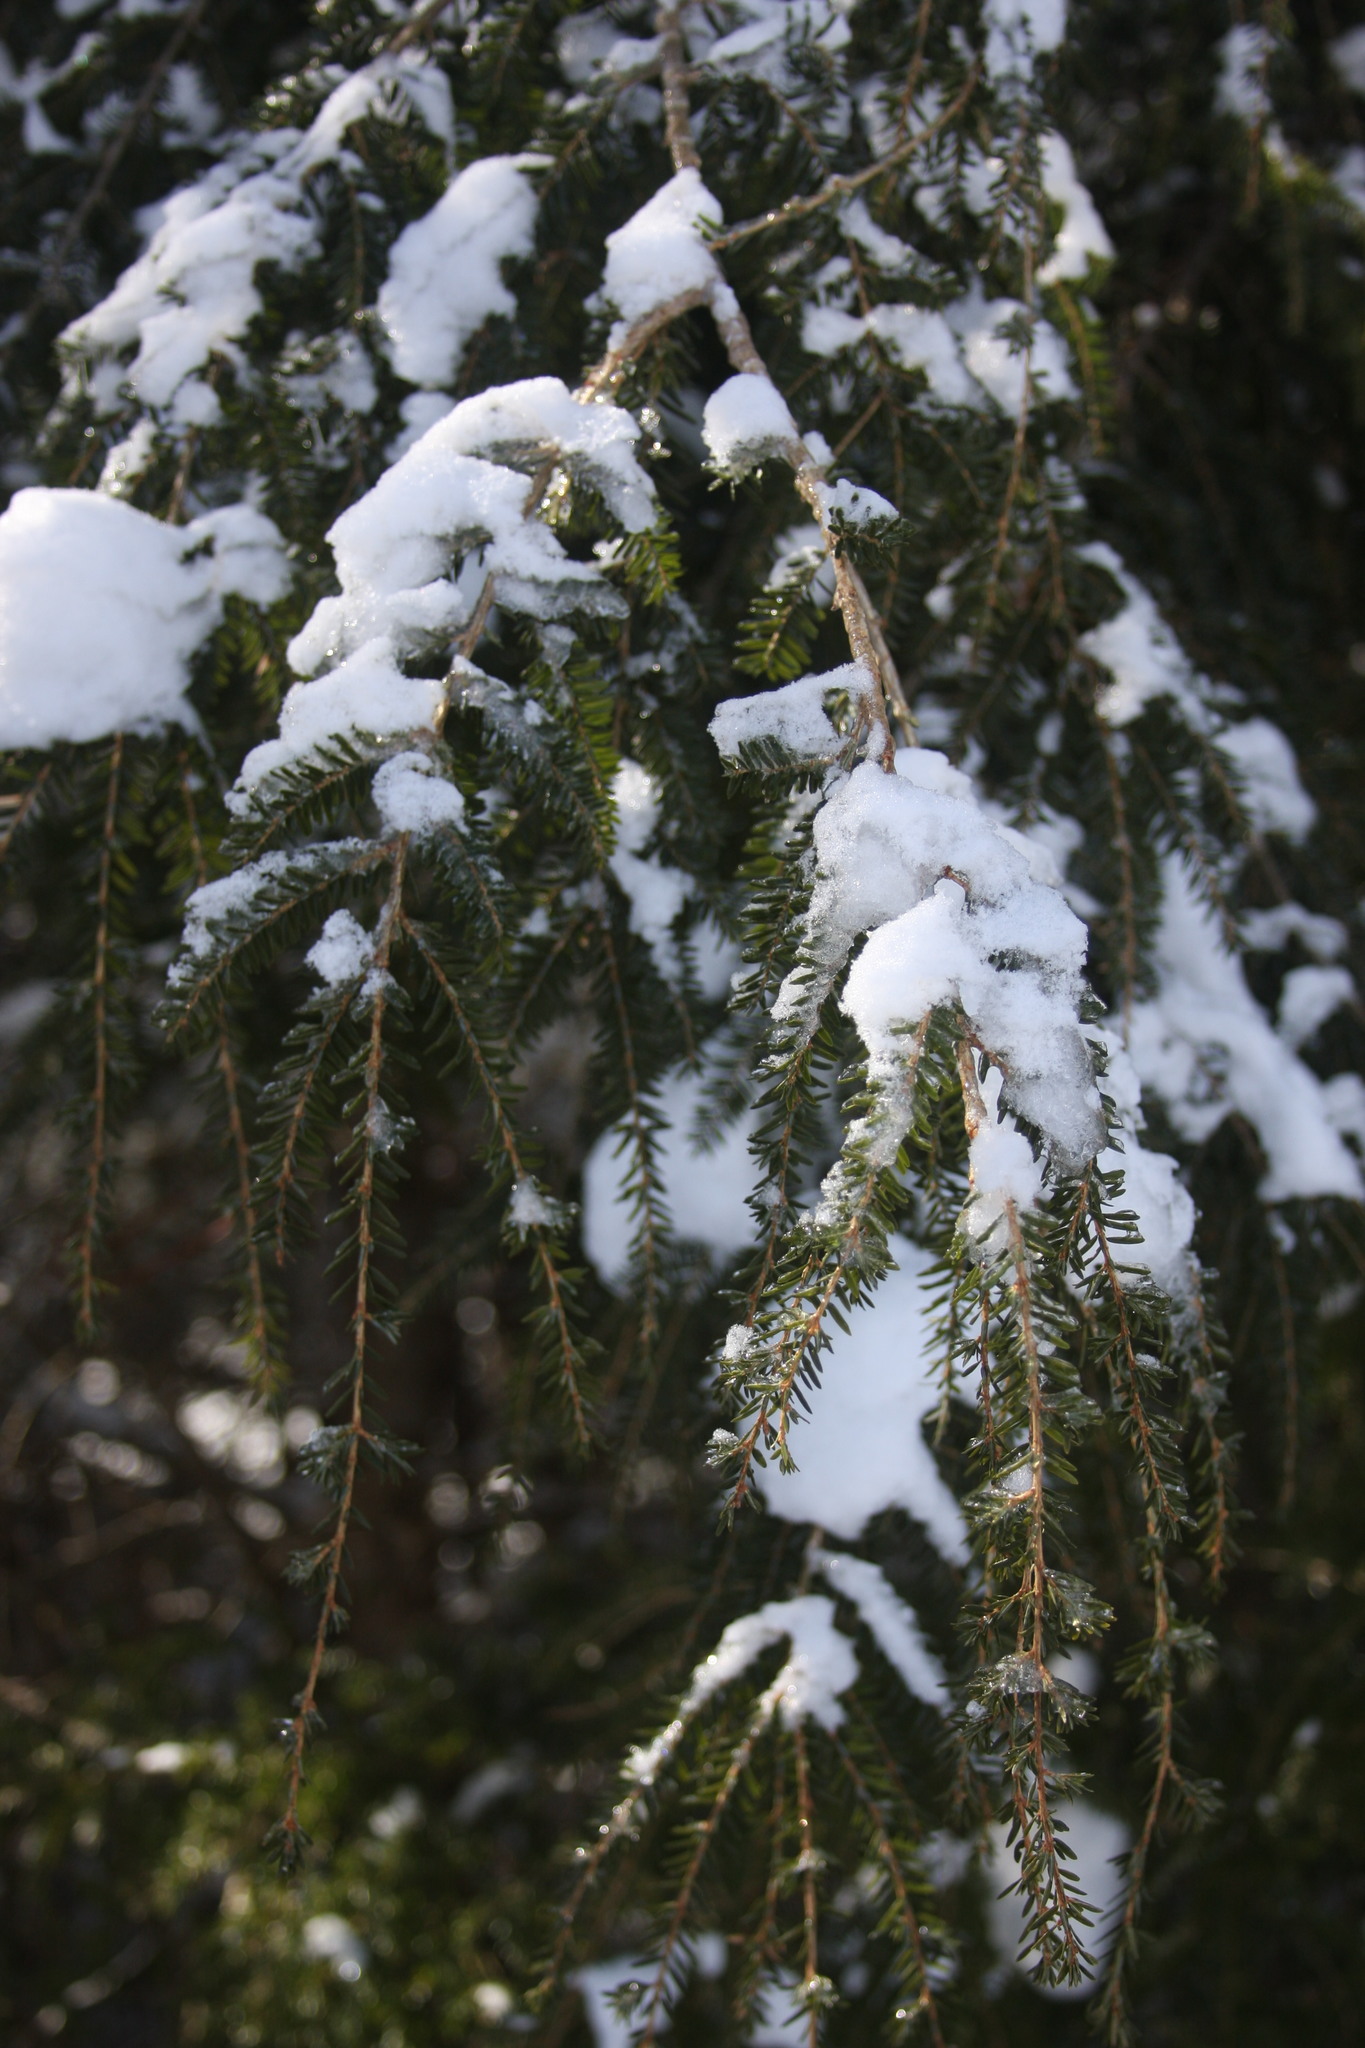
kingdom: Plantae
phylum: Tracheophyta
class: Pinopsida
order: Pinales
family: Pinaceae
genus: Tsuga
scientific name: Tsuga canadensis
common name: Eastern hemlock
